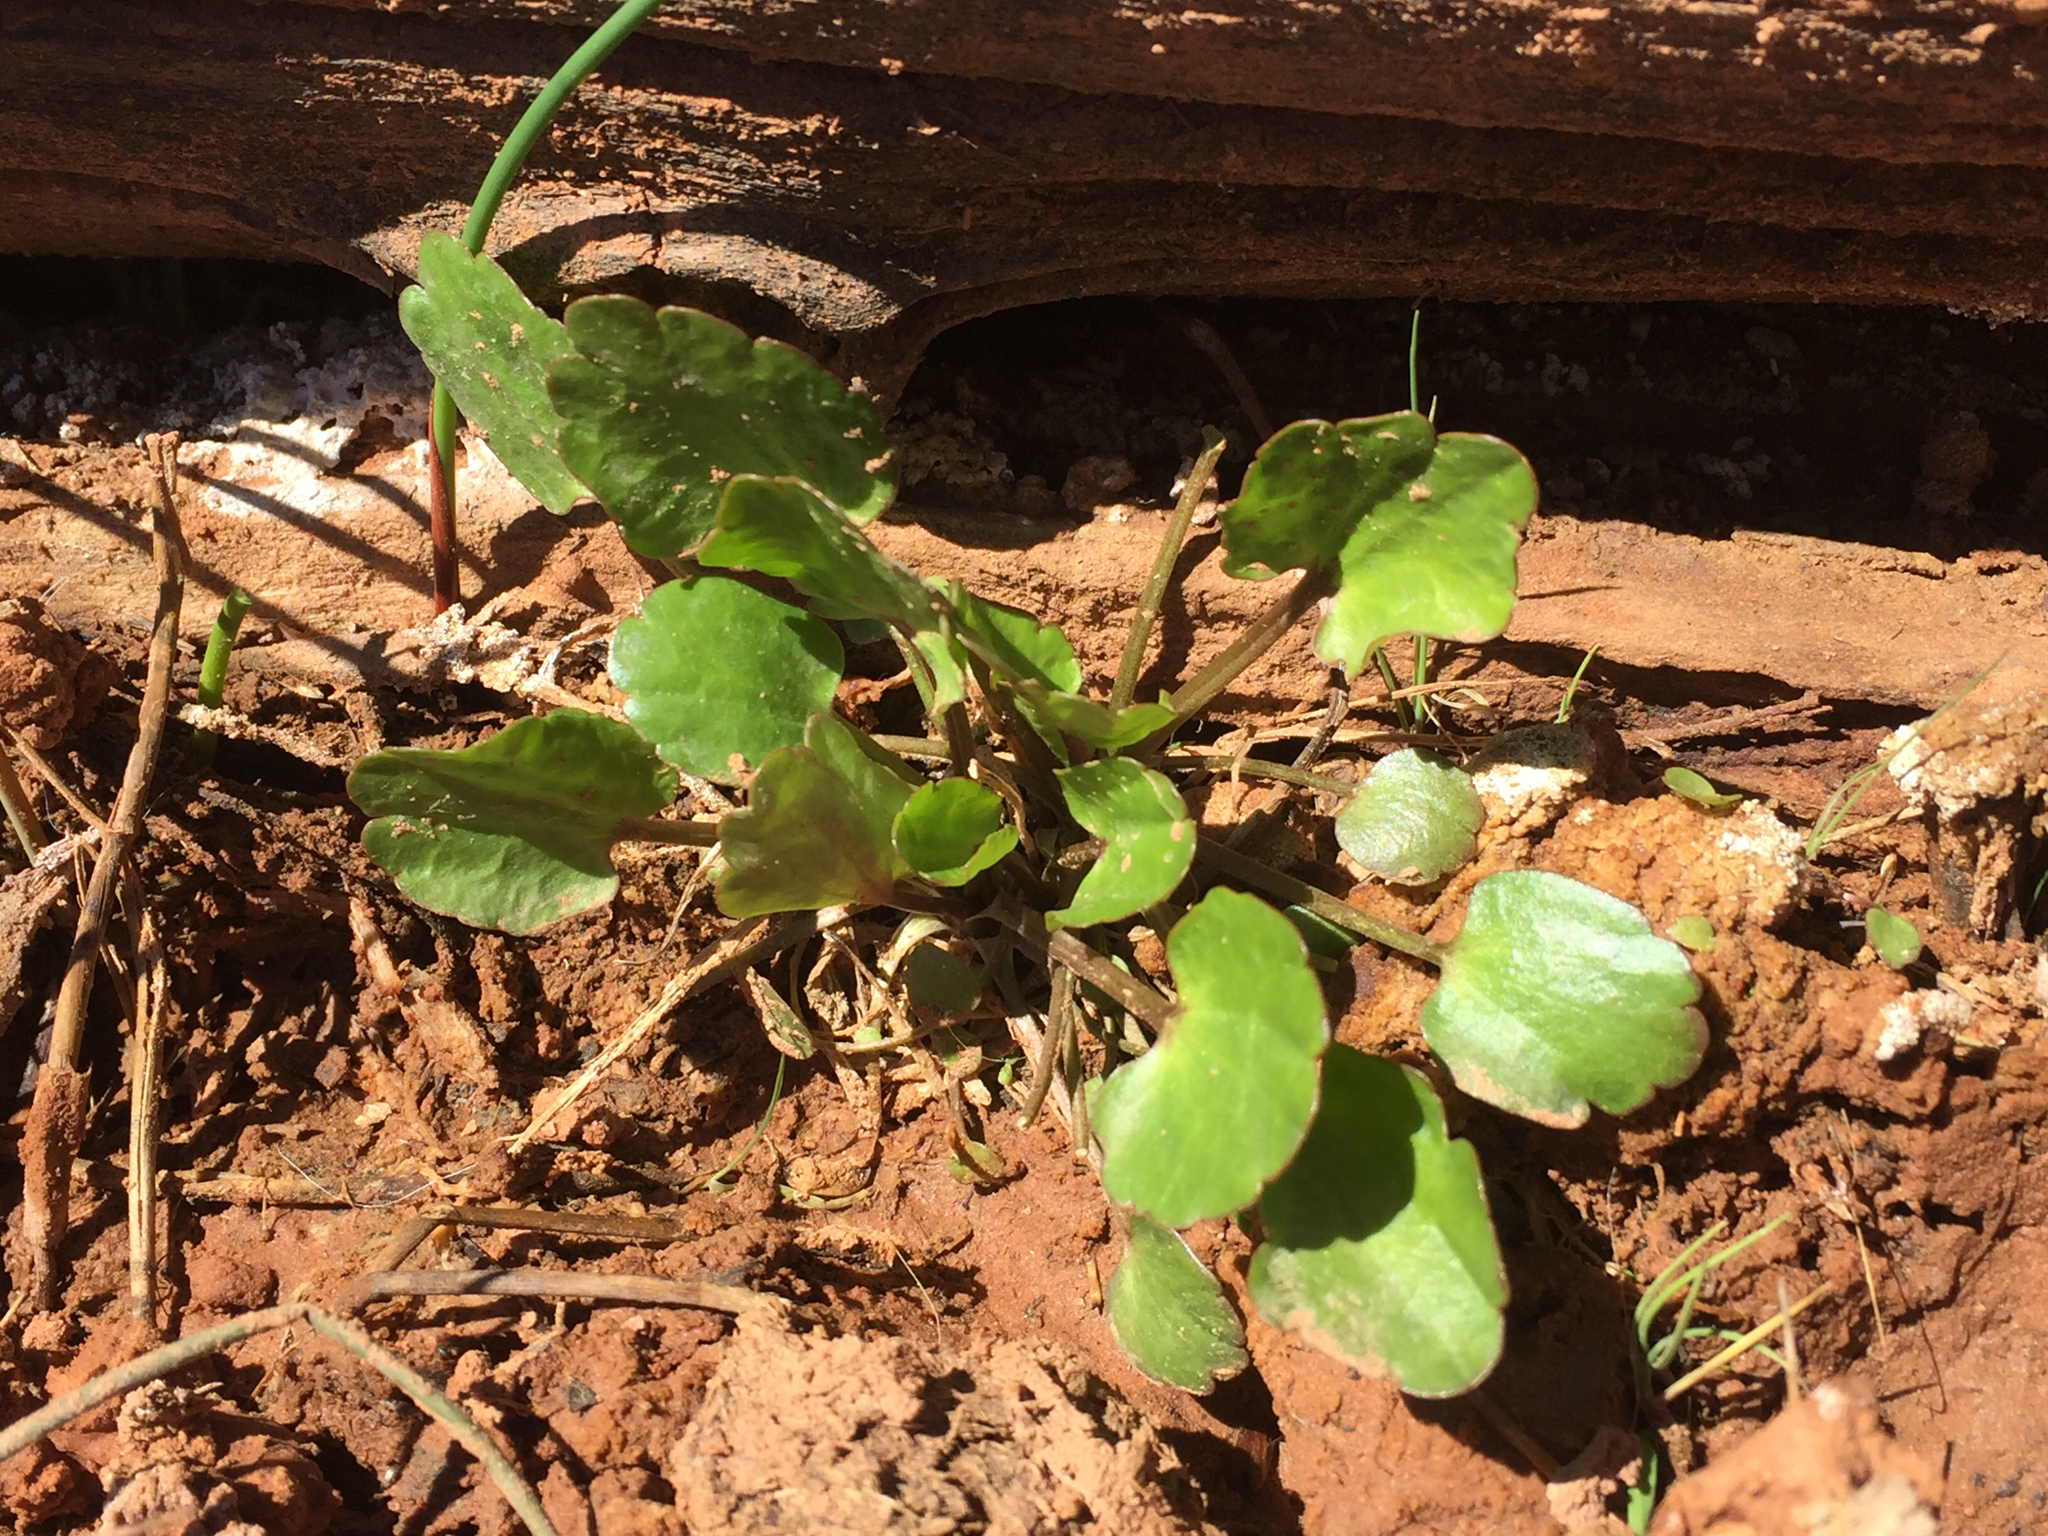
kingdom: Plantae
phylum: Tracheophyta
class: Magnoliopsida
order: Ranunculales
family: Ranunculaceae
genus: Halerpestes
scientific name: Halerpestes cymbalaria
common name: Seaside crowfoot
